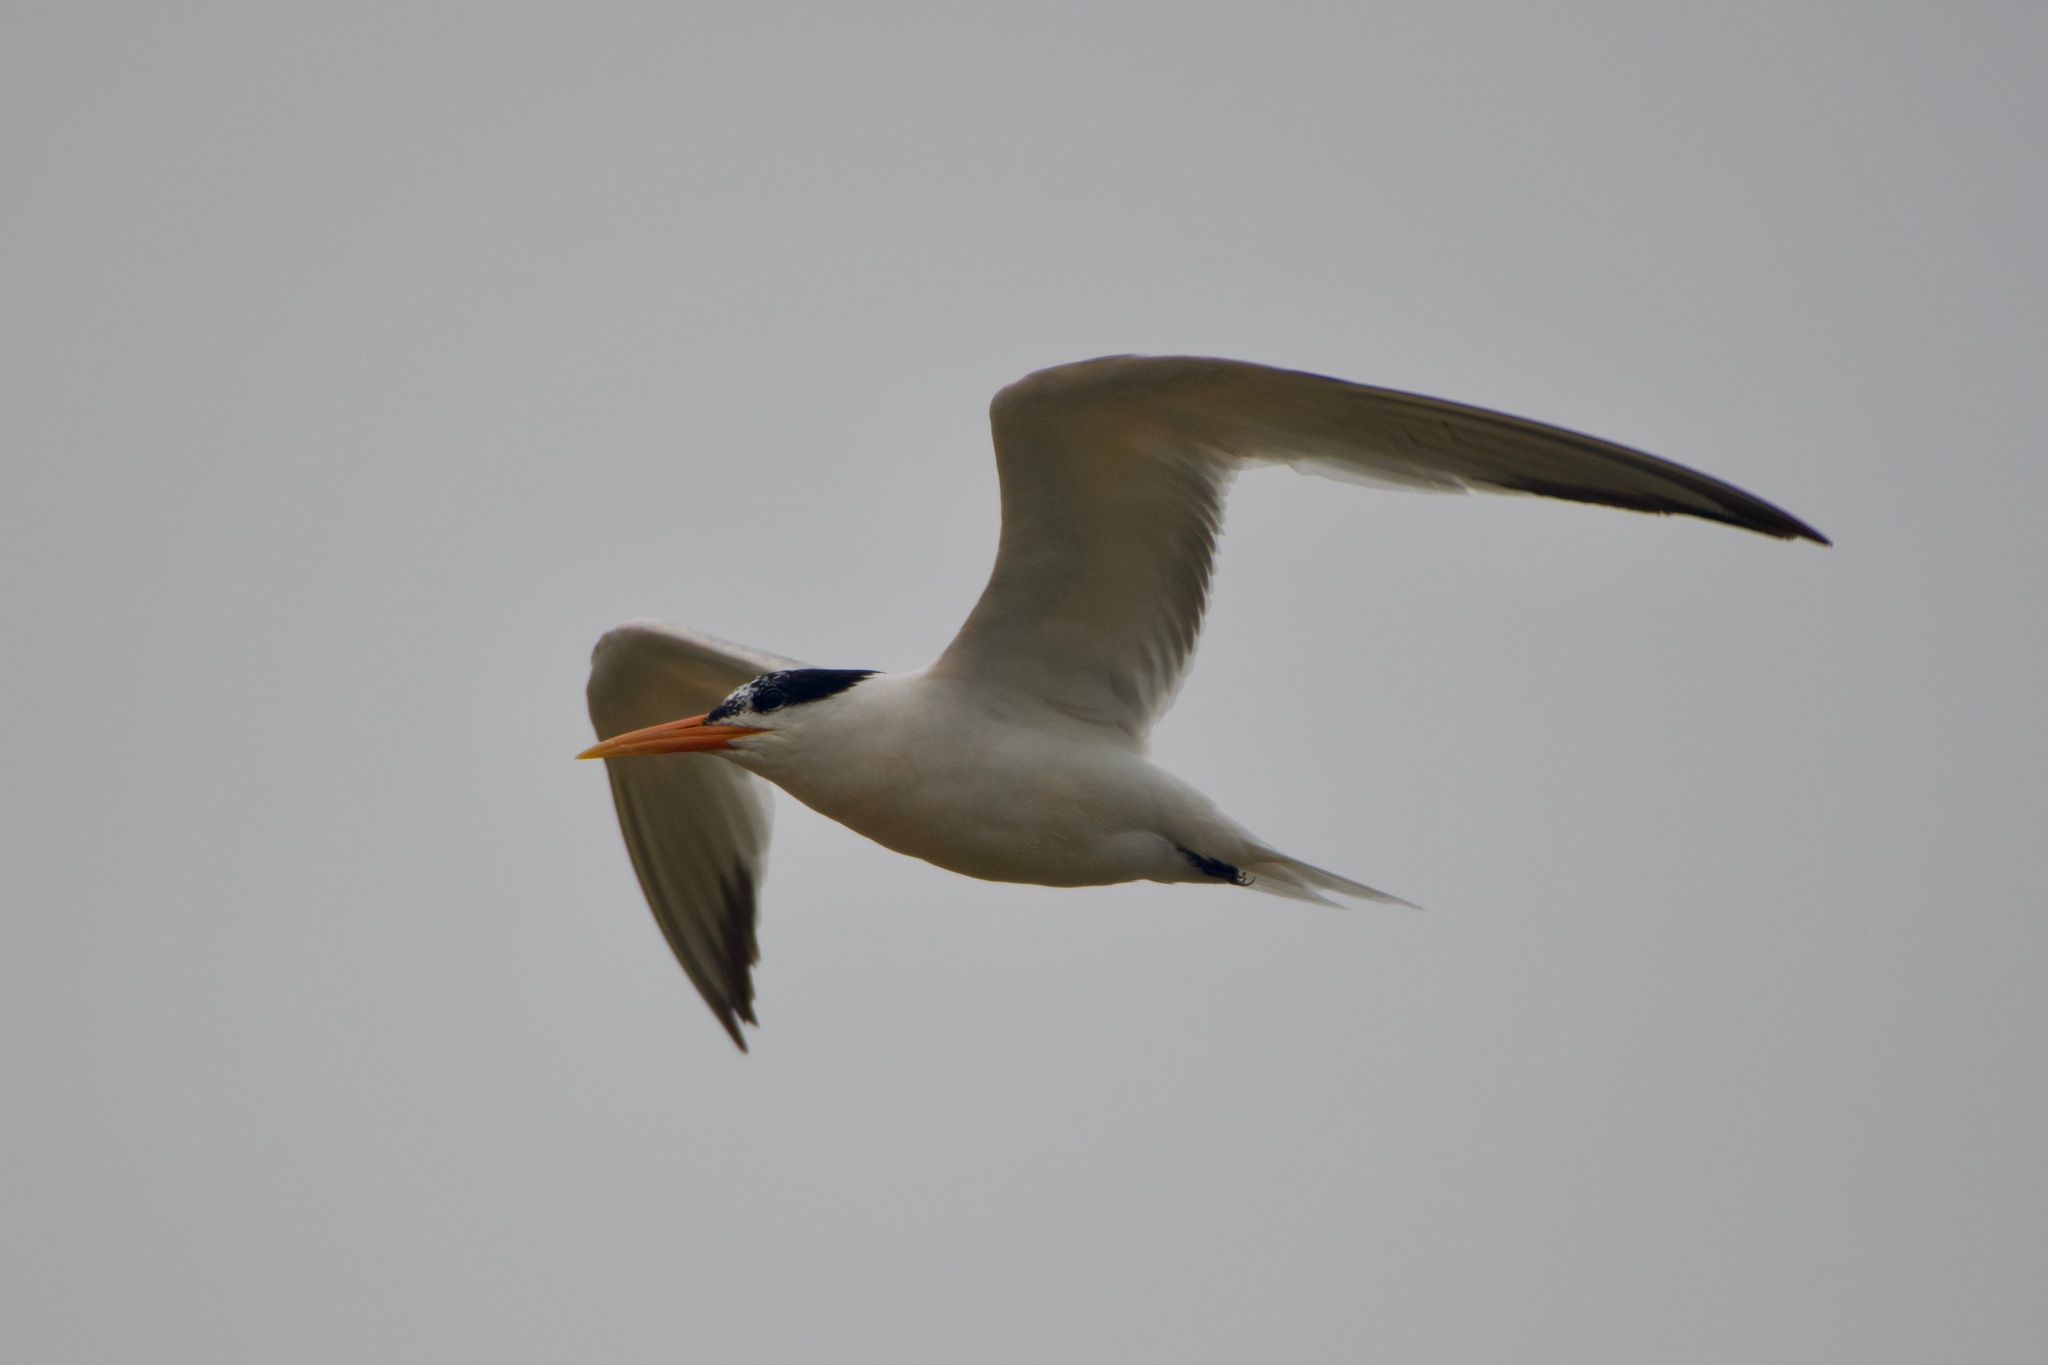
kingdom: Animalia
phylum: Chordata
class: Aves
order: Charadriiformes
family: Laridae
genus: Thalasseus
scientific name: Thalasseus elegans
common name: Elegant tern
